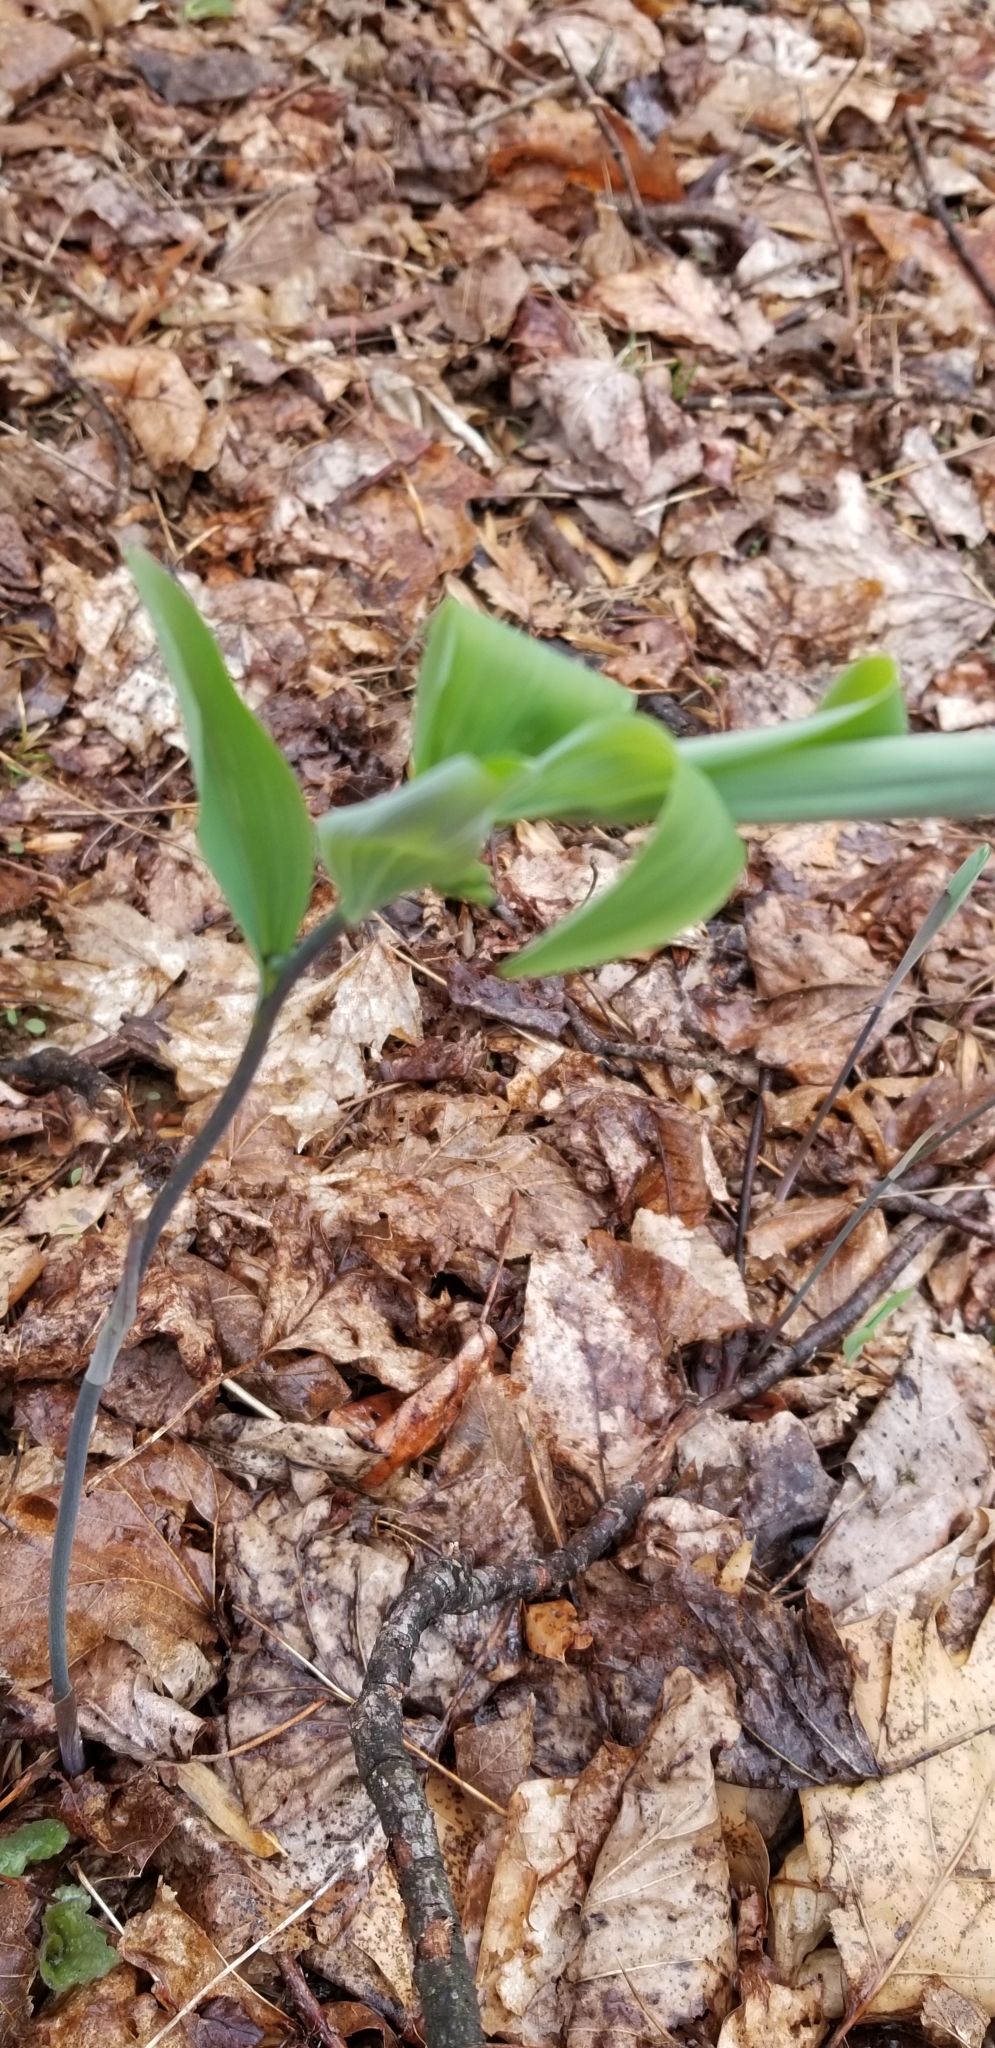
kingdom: Plantae
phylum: Tracheophyta
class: Liliopsida
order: Asparagales
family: Asparagaceae
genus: Polygonatum
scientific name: Polygonatum pubescens
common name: Downy solomon's seal
